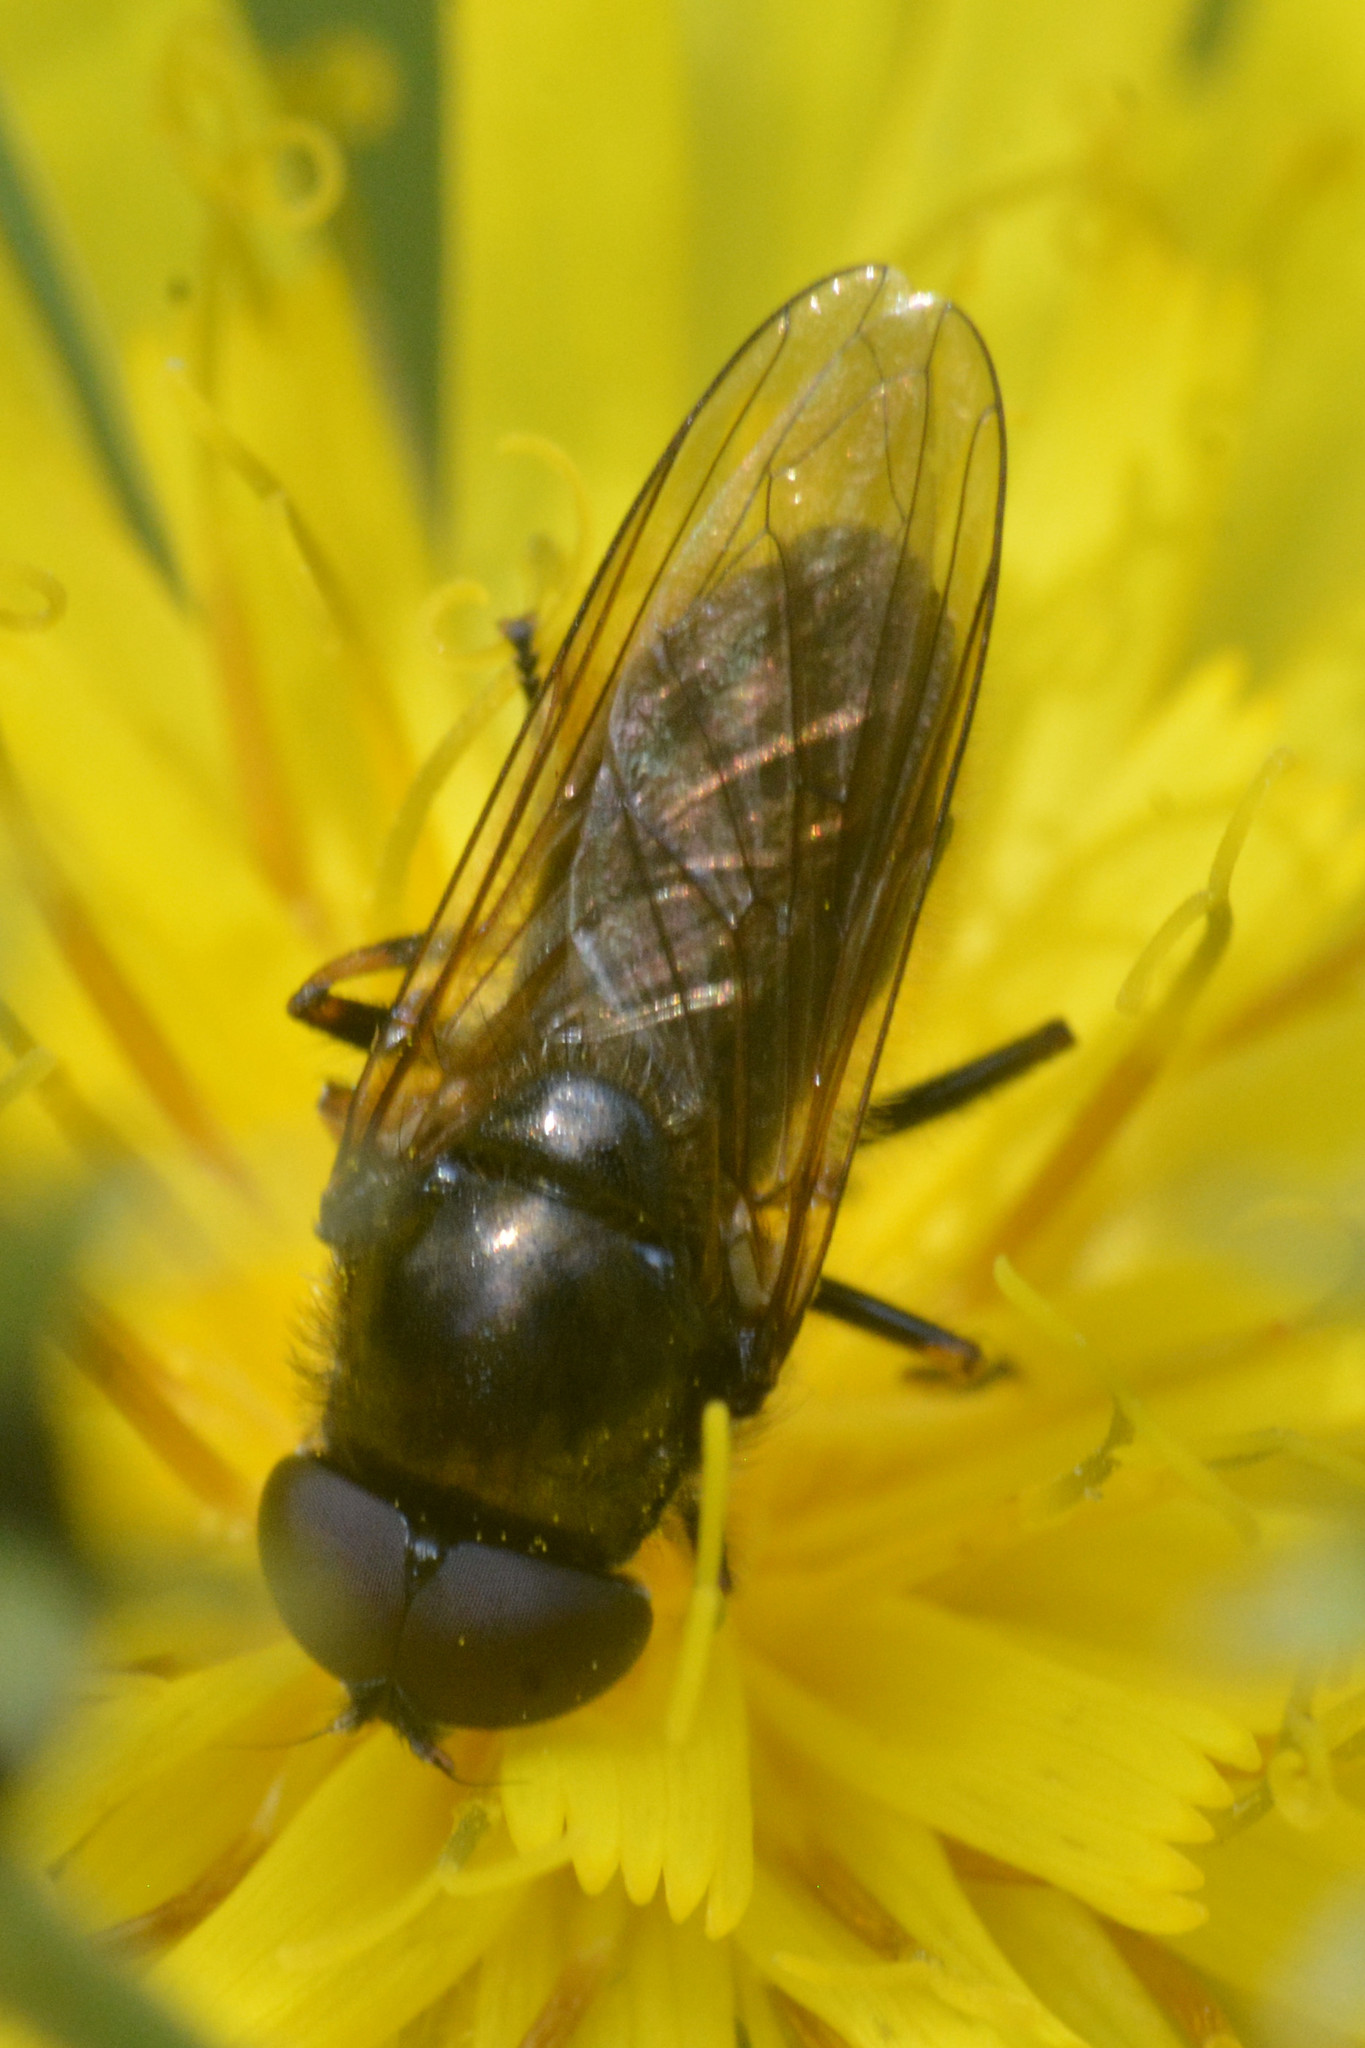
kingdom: Animalia
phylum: Arthropoda
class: Insecta
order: Diptera
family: Syrphidae
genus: Cheilosia
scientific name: Cheilosia
